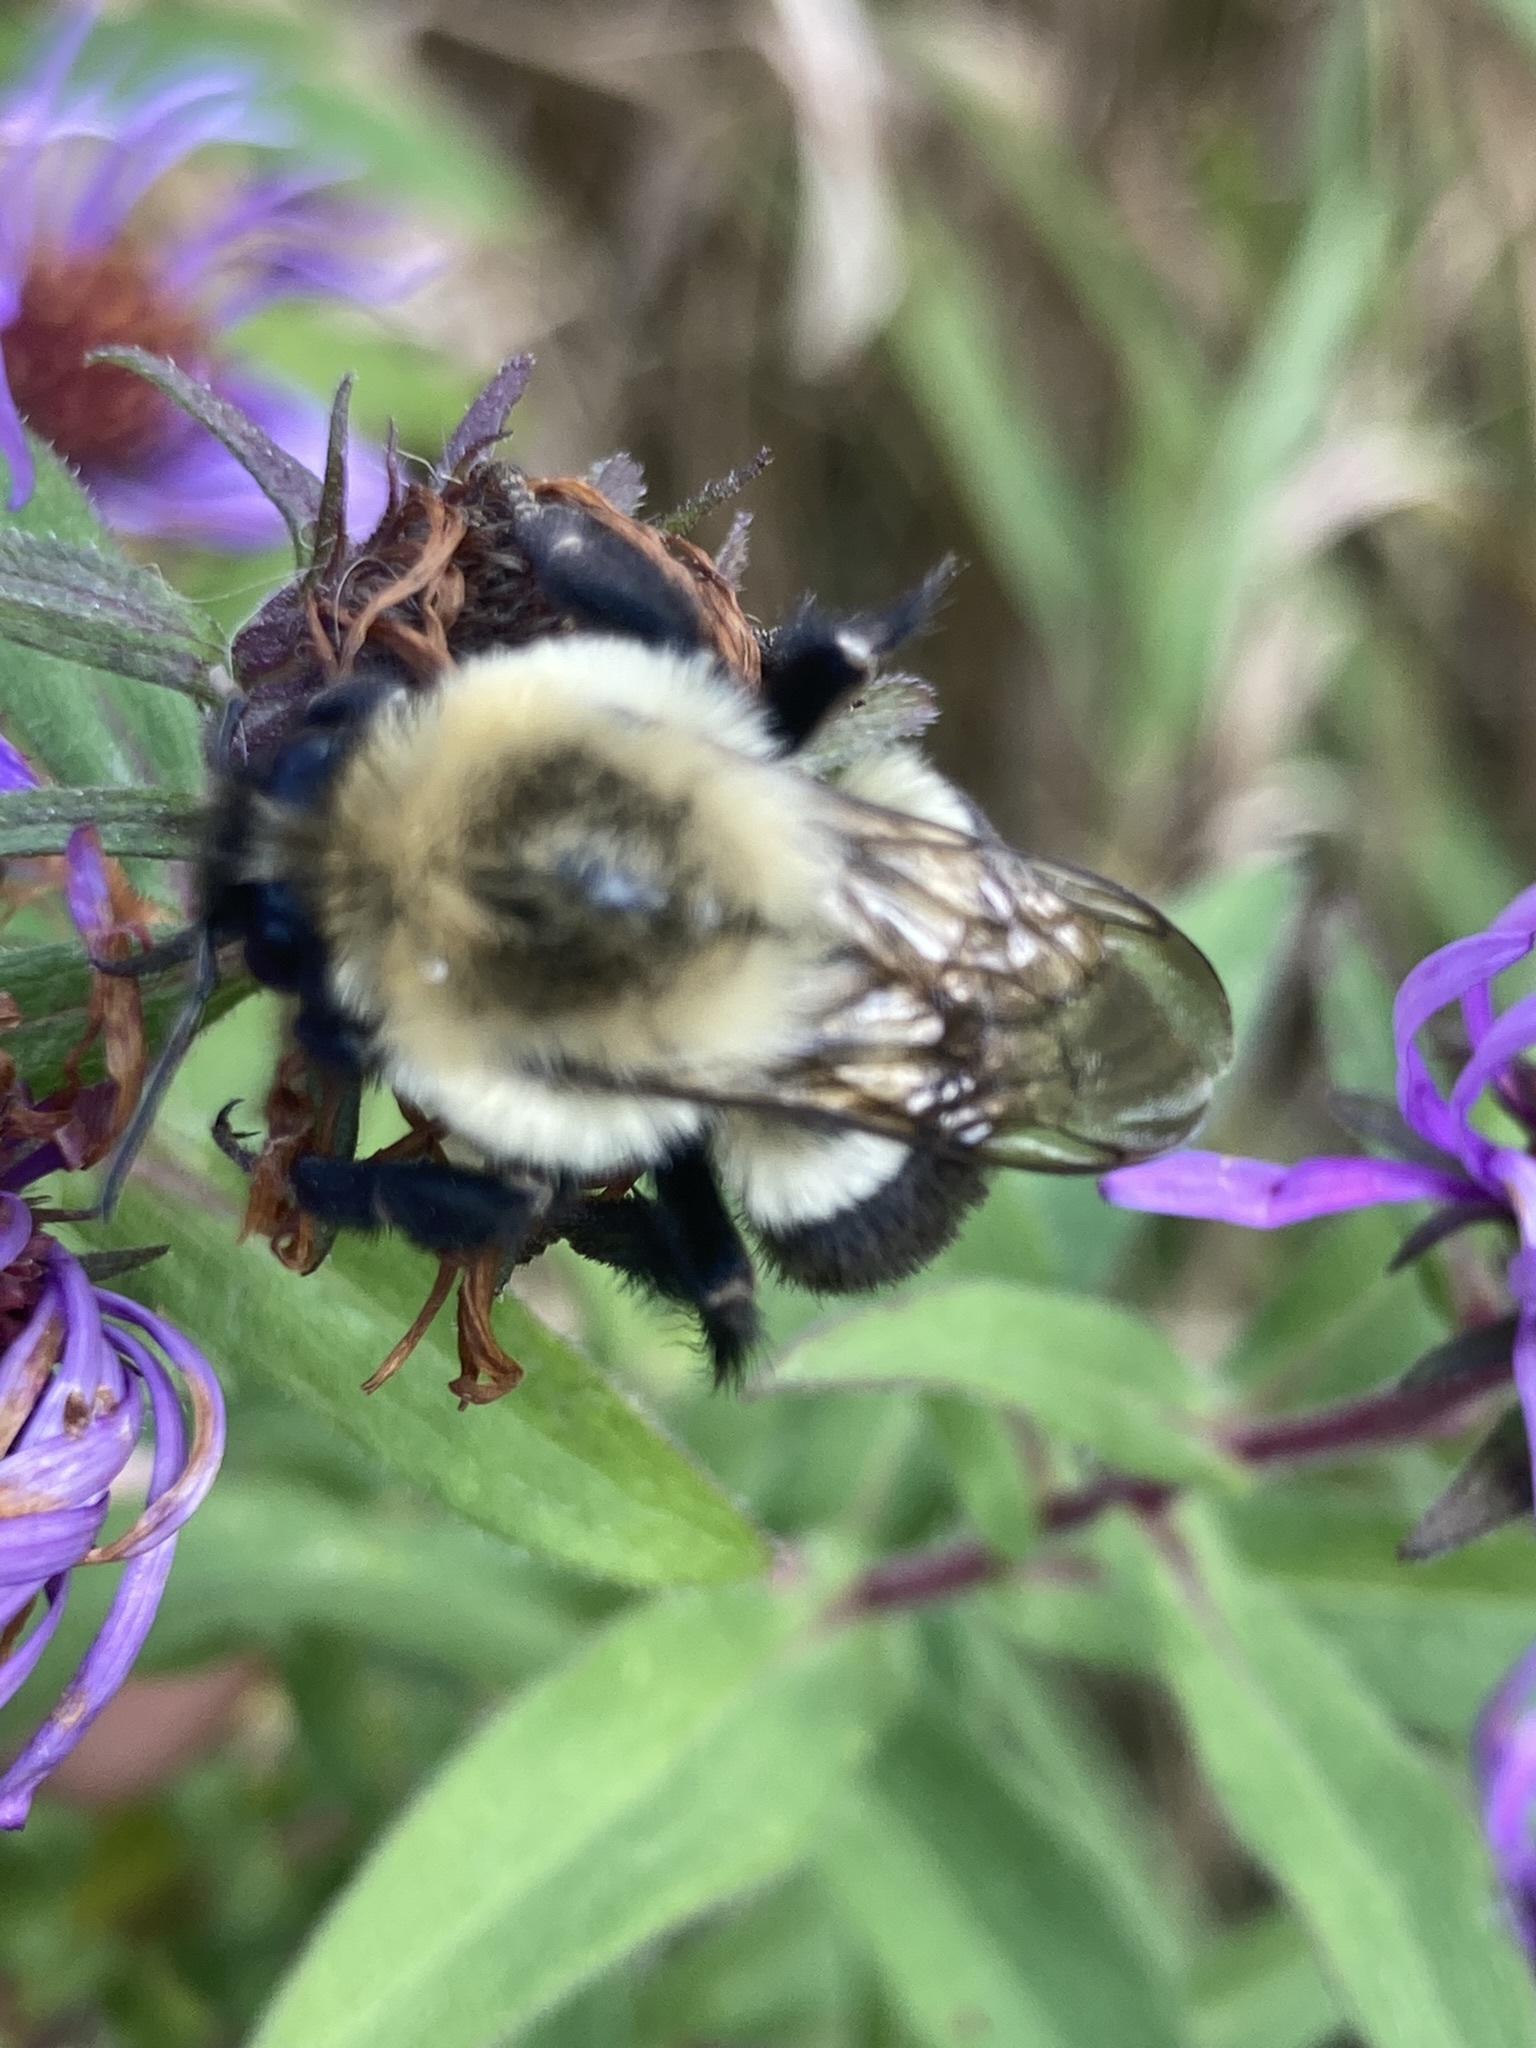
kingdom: Animalia
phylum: Arthropoda
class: Insecta
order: Hymenoptera
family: Apidae
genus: Bombus
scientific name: Bombus impatiens
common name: Common eastern bumble bee
